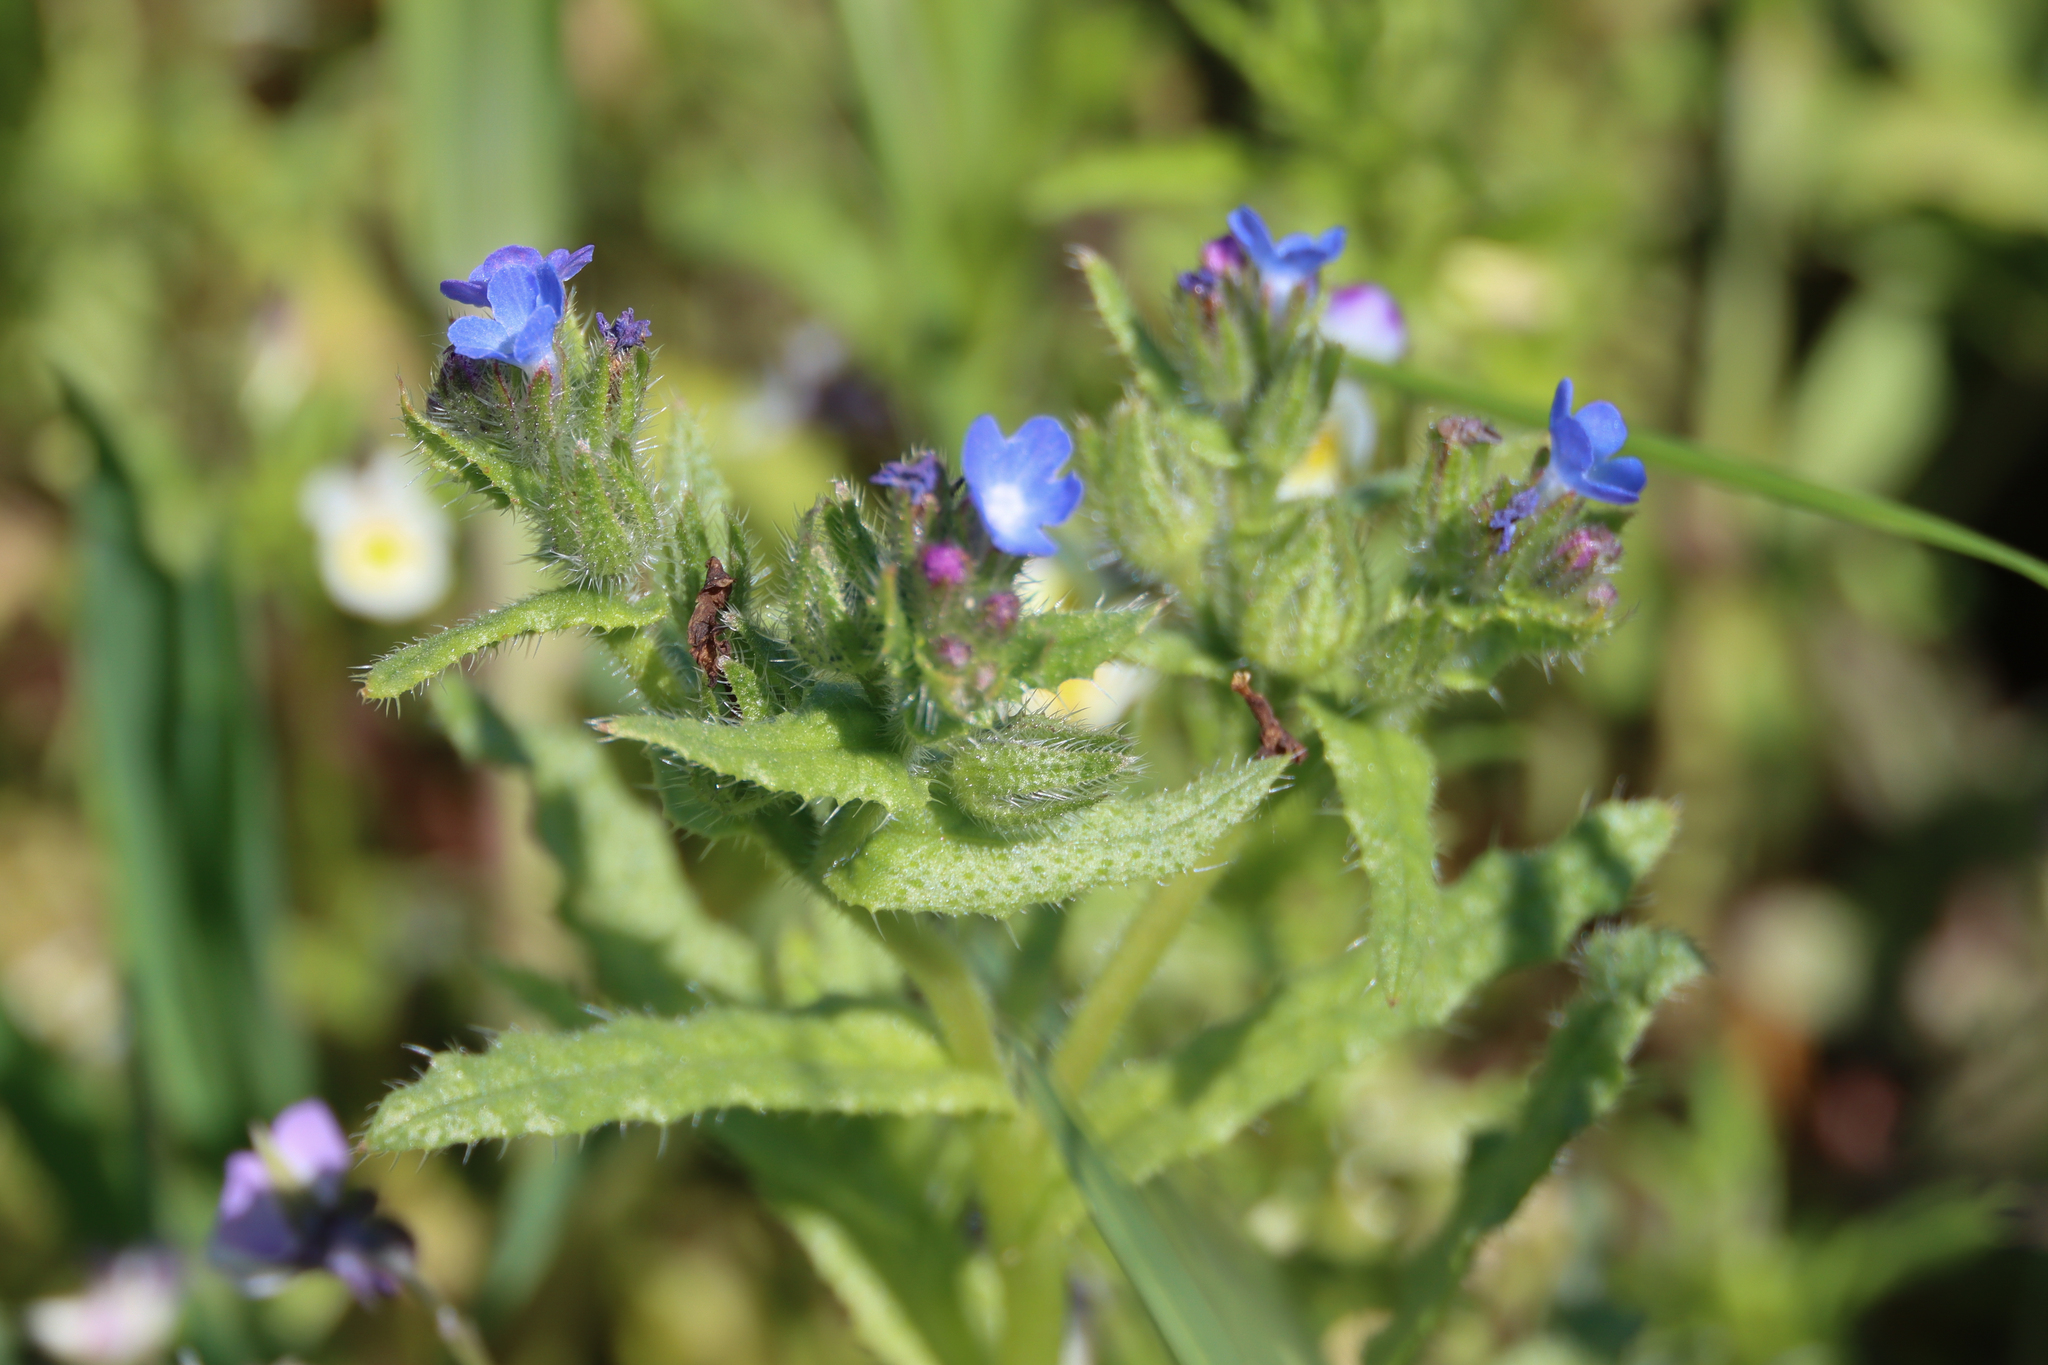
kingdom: Plantae
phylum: Tracheophyta
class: Magnoliopsida
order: Boraginales
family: Boraginaceae
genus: Lycopsis
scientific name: Lycopsis arvensis
